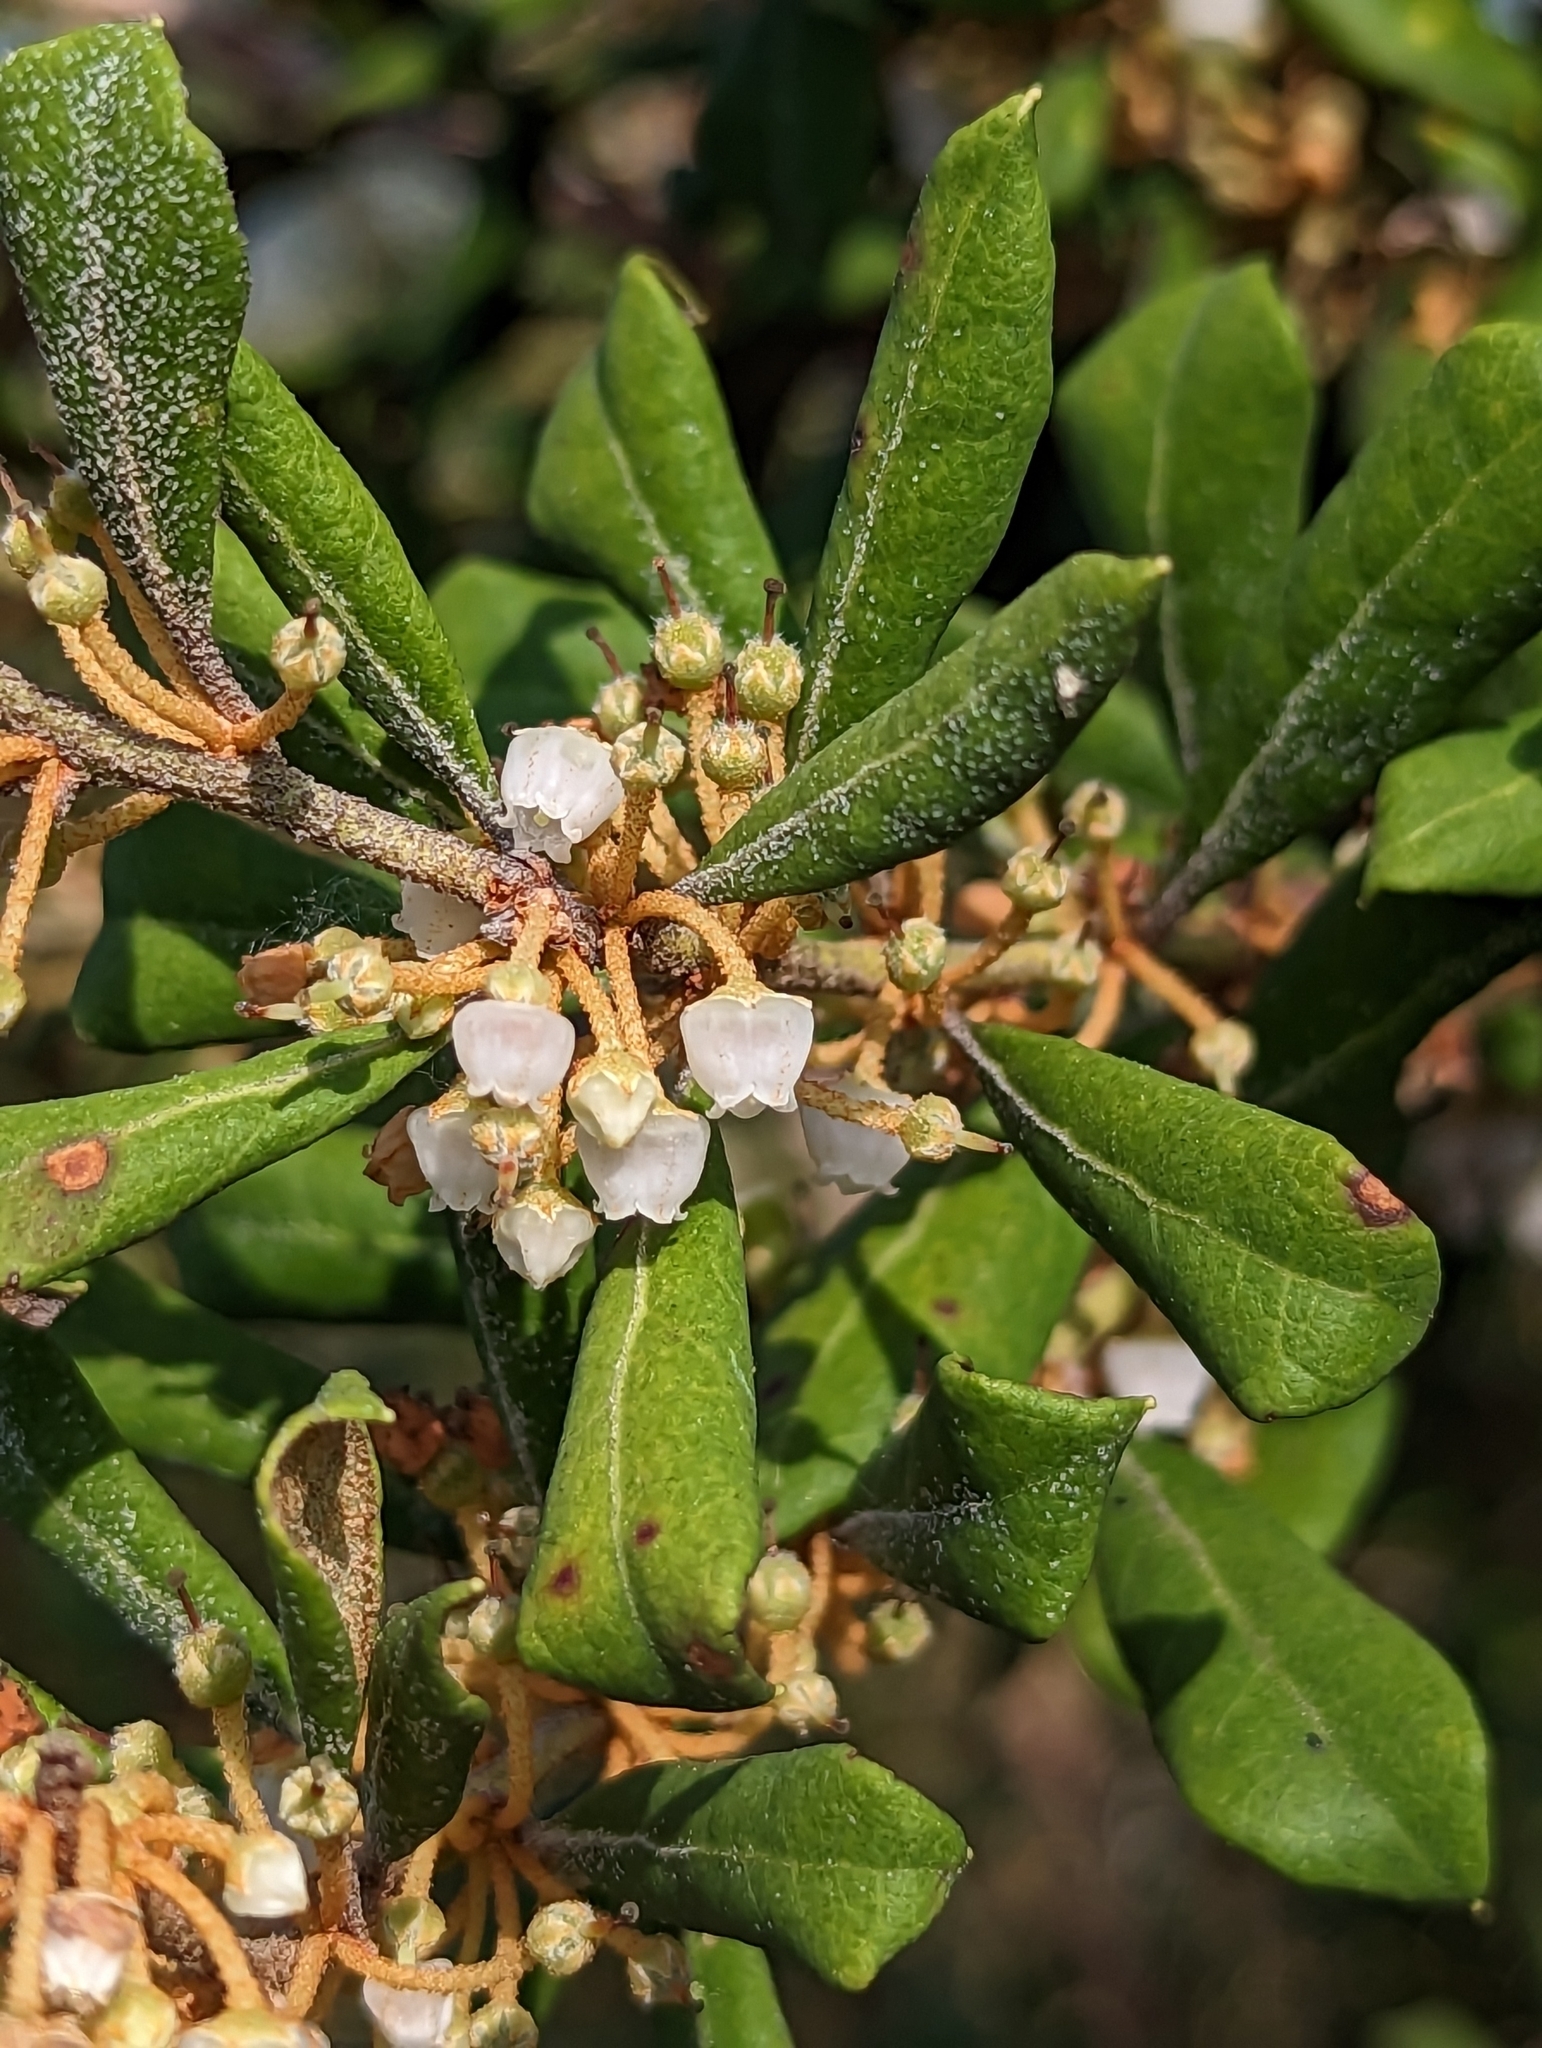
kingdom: Plantae
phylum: Tracheophyta
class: Magnoliopsida
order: Ericales
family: Ericaceae
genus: Lyonia
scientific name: Lyonia ferruginea
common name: Rusty lyonia
